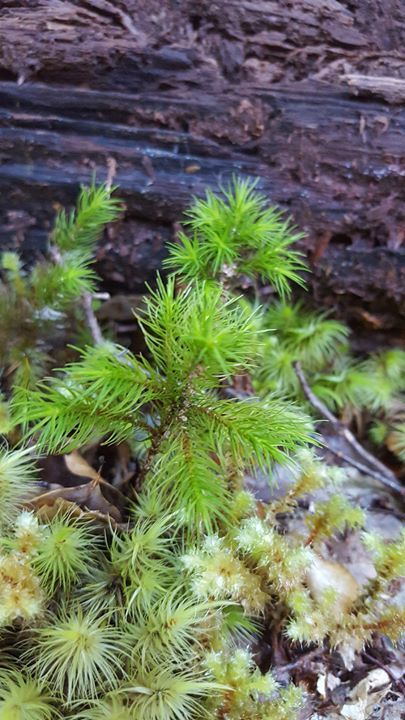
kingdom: Plantae
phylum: Bryophyta
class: Polytrichopsida
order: Polytrichales
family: Polytrichaceae
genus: Dendroligotrichum
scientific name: Dendroligotrichum tongariroense
